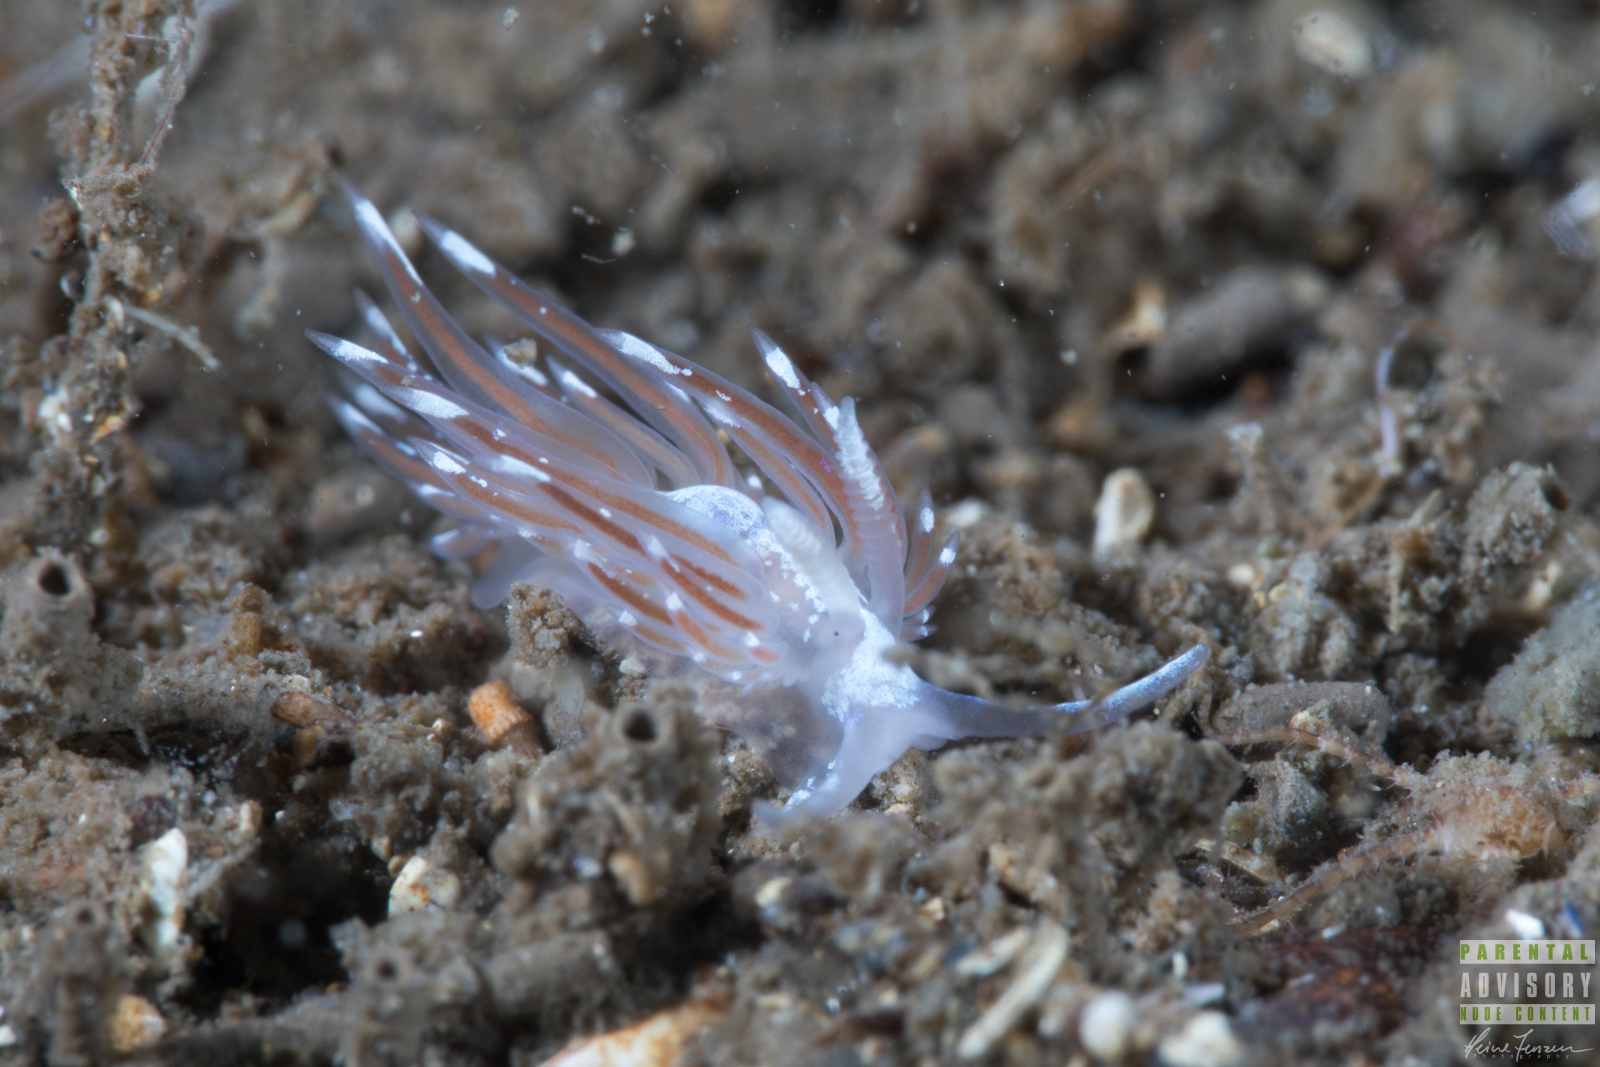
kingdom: Animalia
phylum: Mollusca
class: Gastropoda
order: Nudibranchia
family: Facelinidae
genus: Facelina
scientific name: Facelina bostoniensis
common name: Boston facelina
